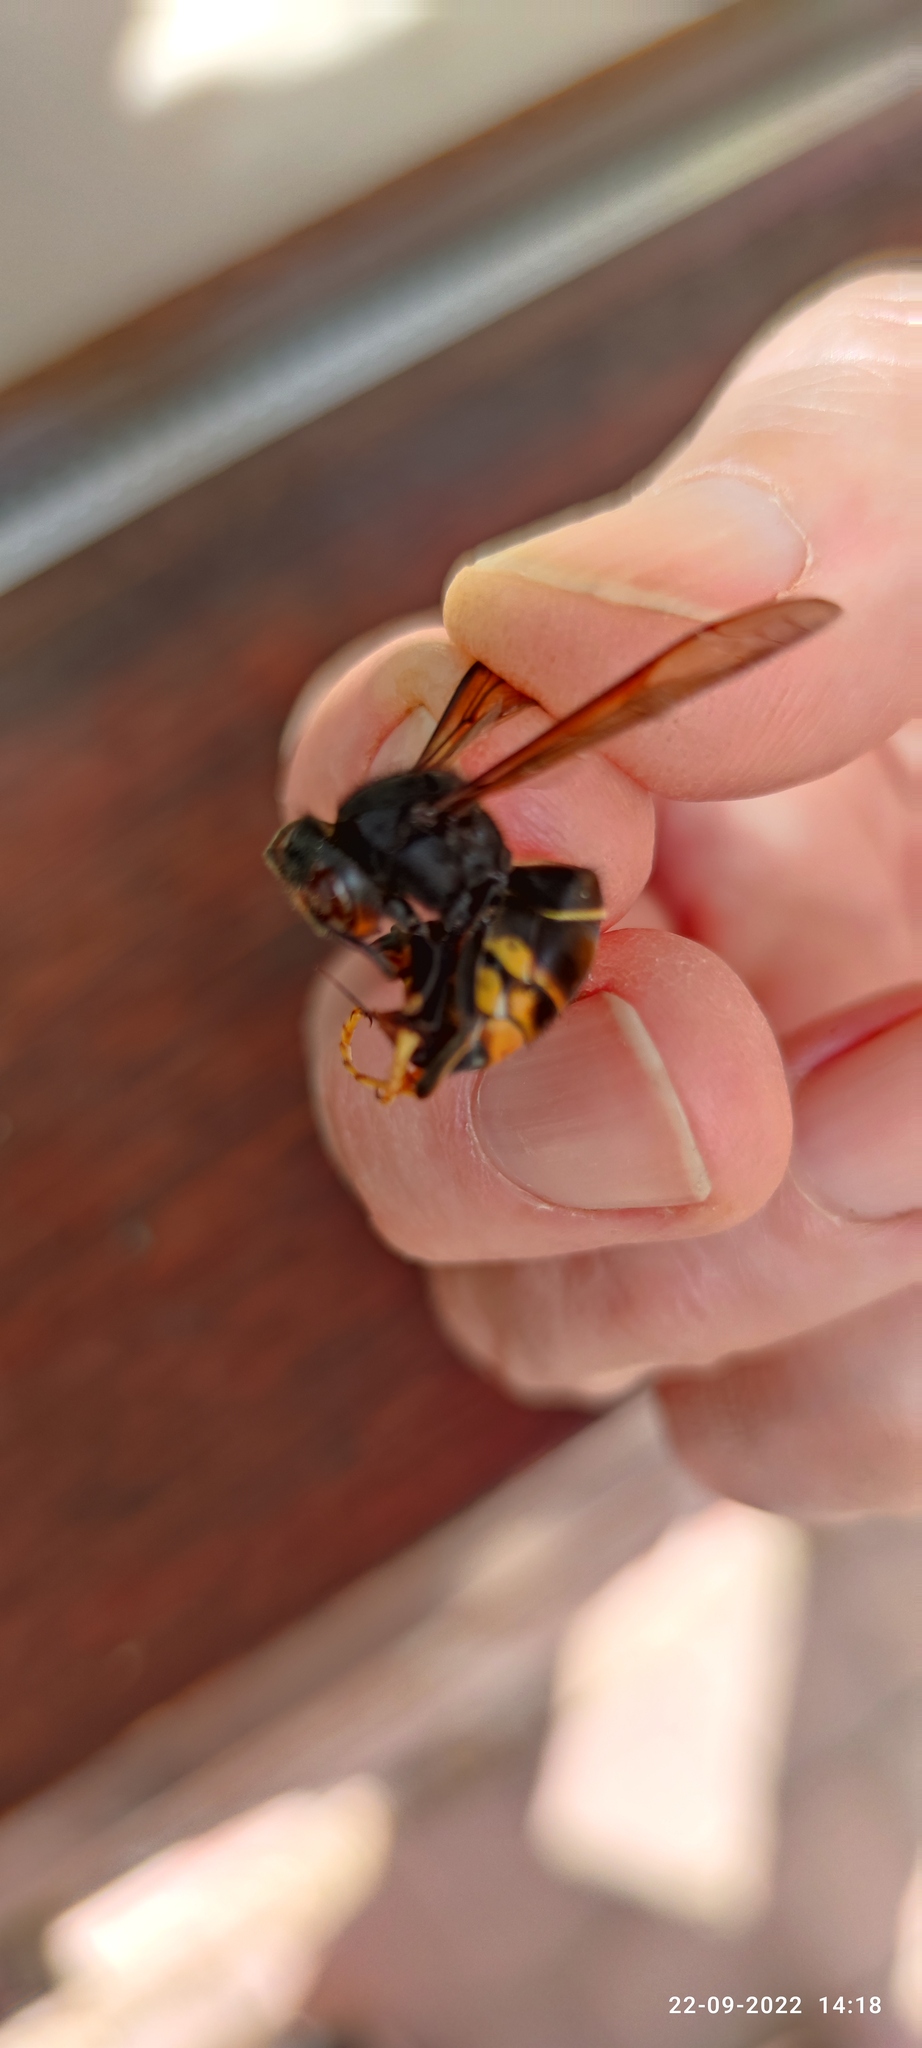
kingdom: Animalia
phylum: Arthropoda
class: Insecta
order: Hymenoptera
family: Vespidae
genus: Vespa
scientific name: Vespa velutina
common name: Asian hornet
